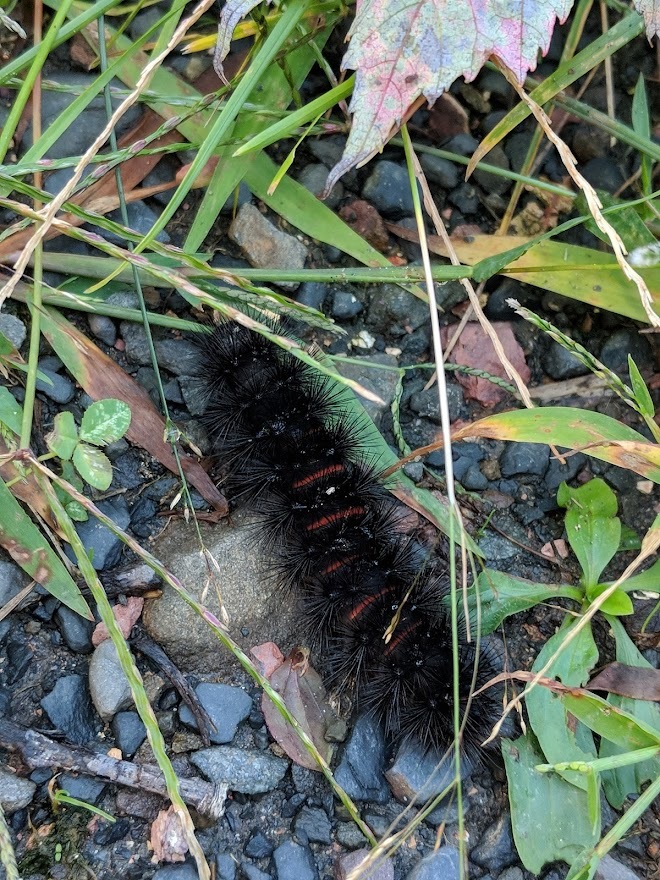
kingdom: Animalia
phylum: Arthropoda
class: Insecta
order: Lepidoptera
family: Erebidae
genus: Hypercompe
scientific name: Hypercompe scribonia
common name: Giant leopard moth
